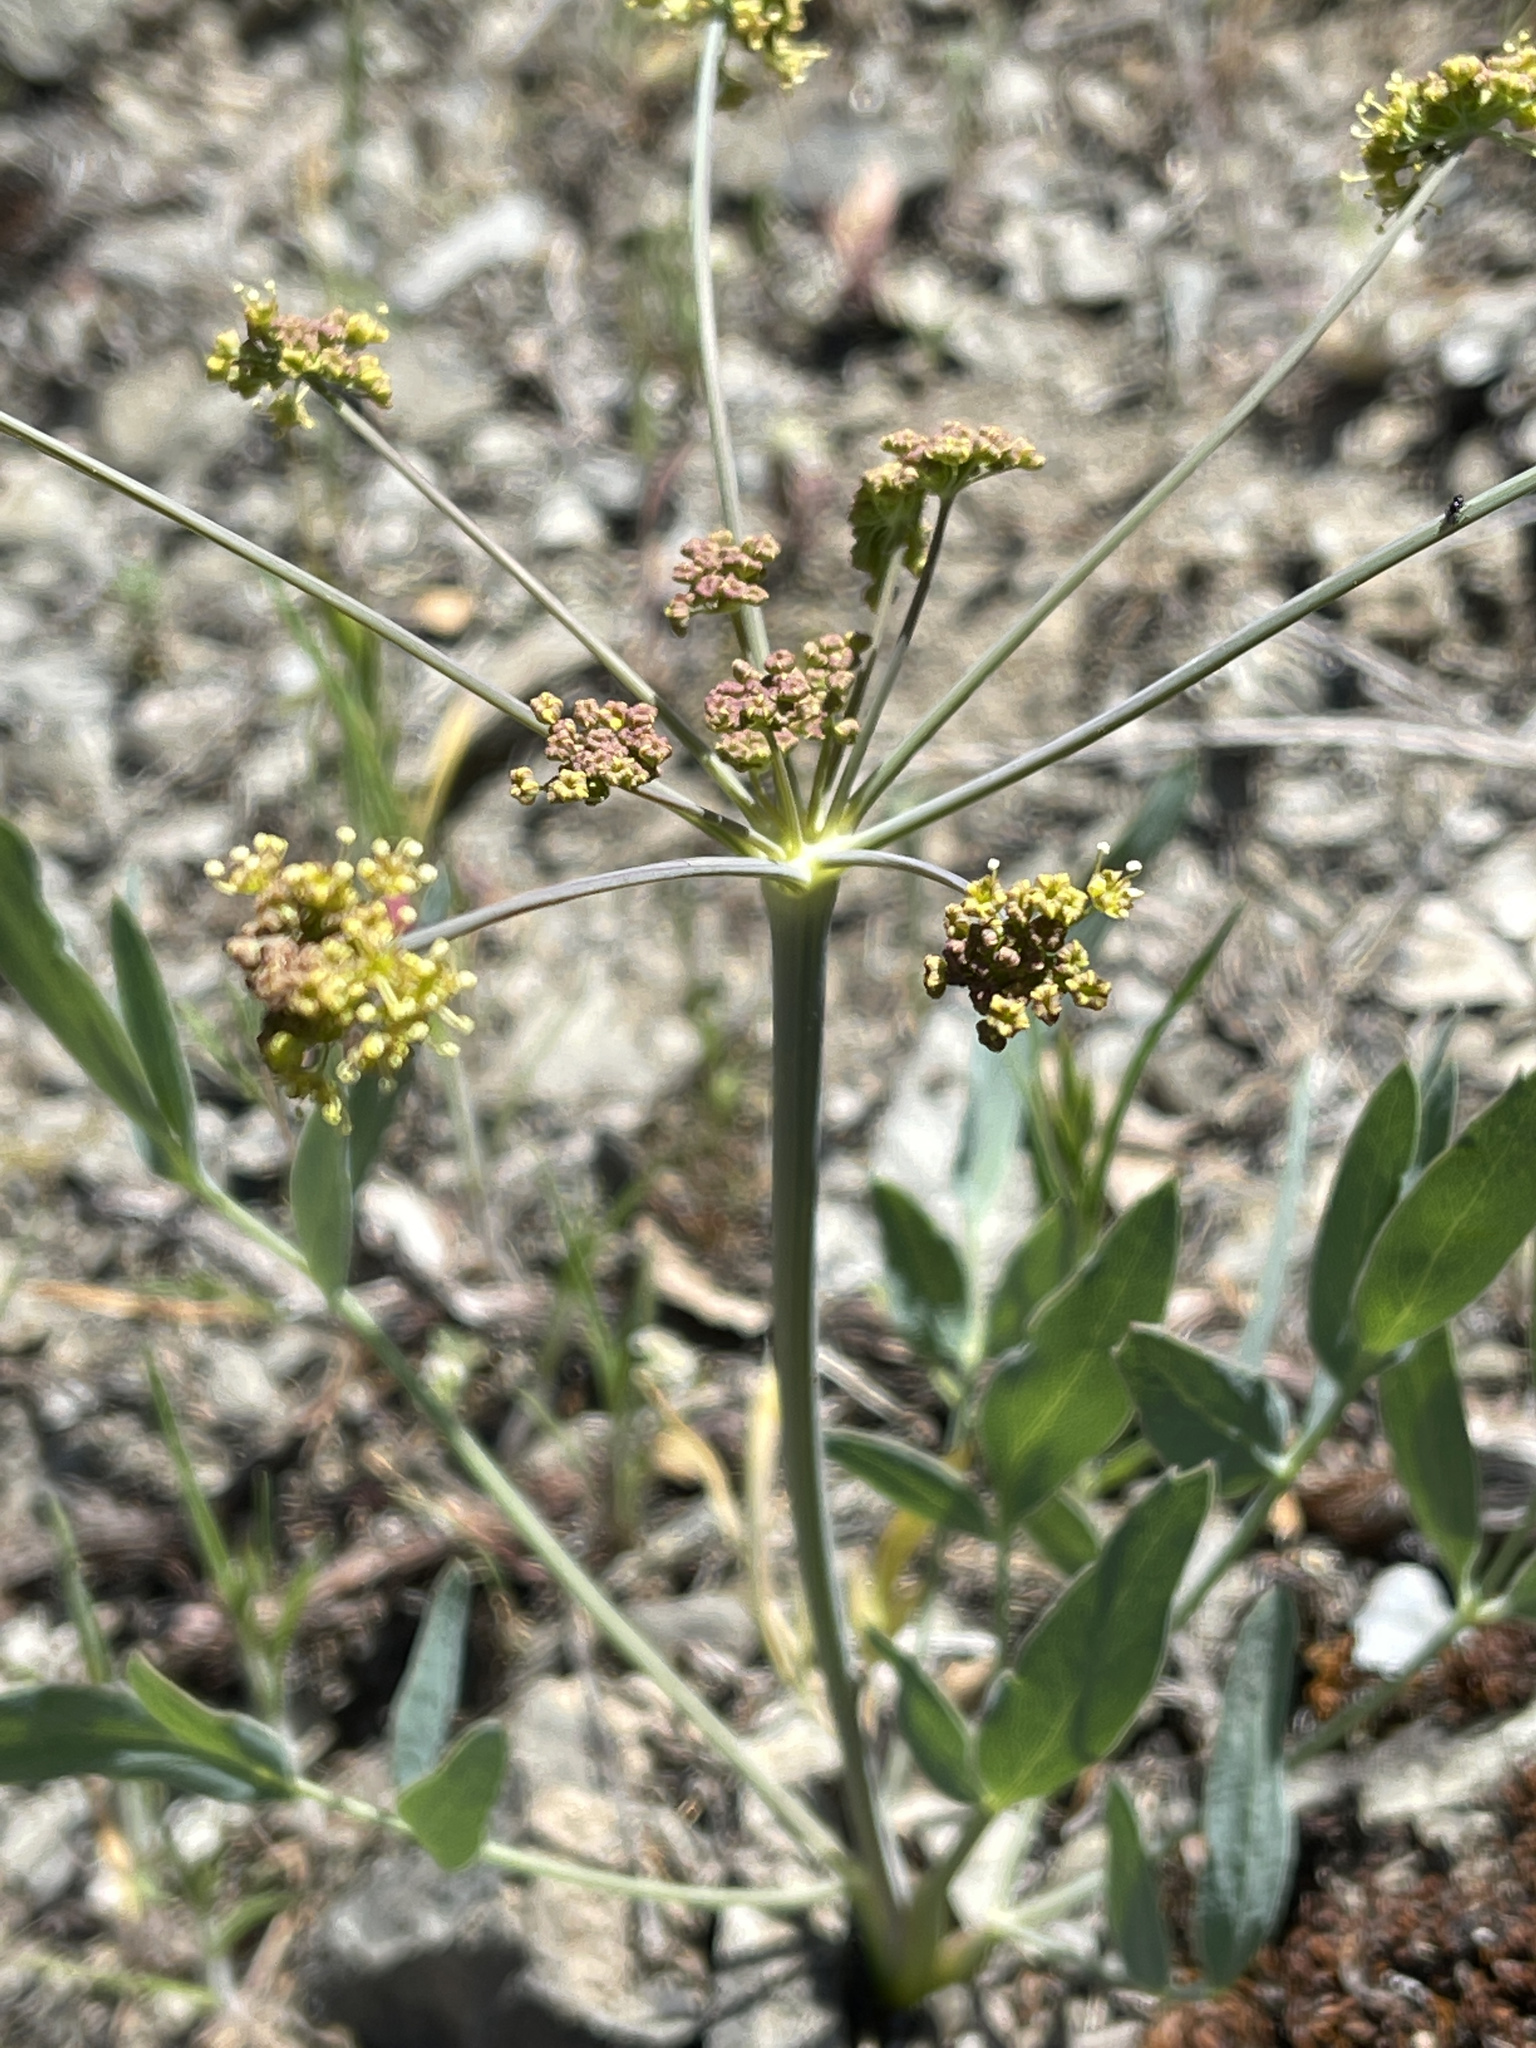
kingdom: Plantae
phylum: Tracheophyta
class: Magnoliopsida
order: Apiales
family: Apiaceae
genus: Lomatium
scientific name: Lomatium nudicaule
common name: Pestle lomatium
